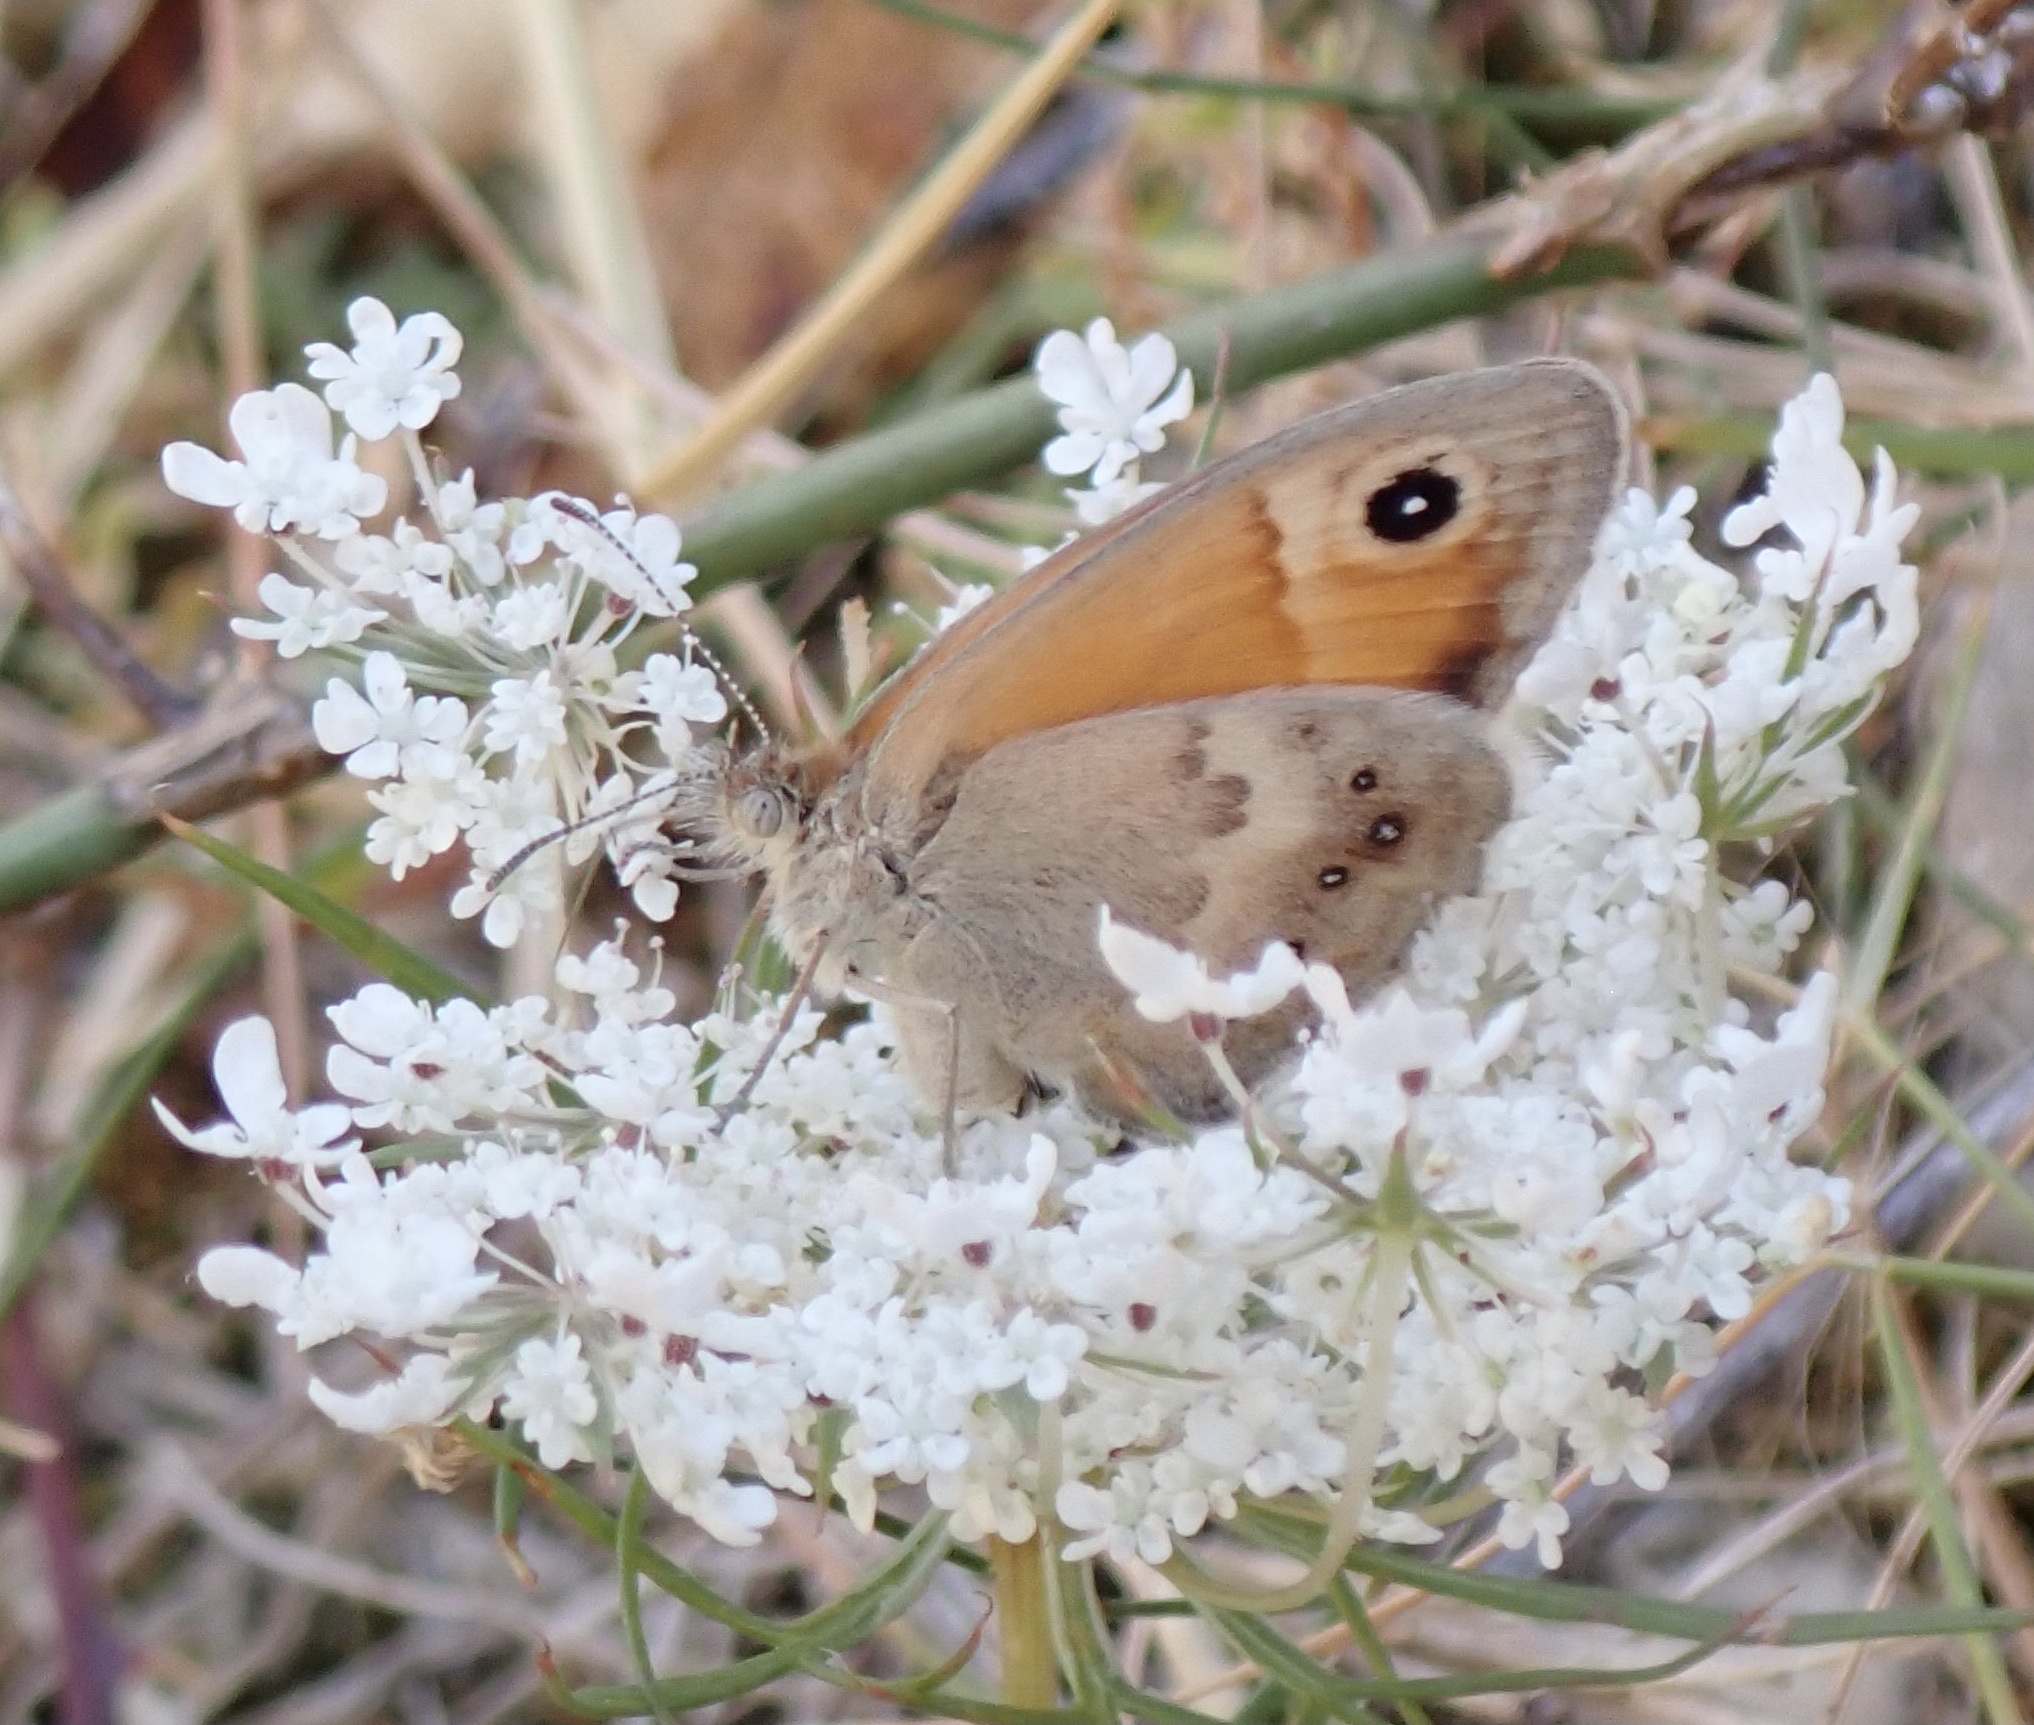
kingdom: Animalia
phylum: Arthropoda
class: Insecta
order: Lepidoptera
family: Nymphalidae
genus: Coenonympha
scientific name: Coenonympha pamphilus
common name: Small heath
